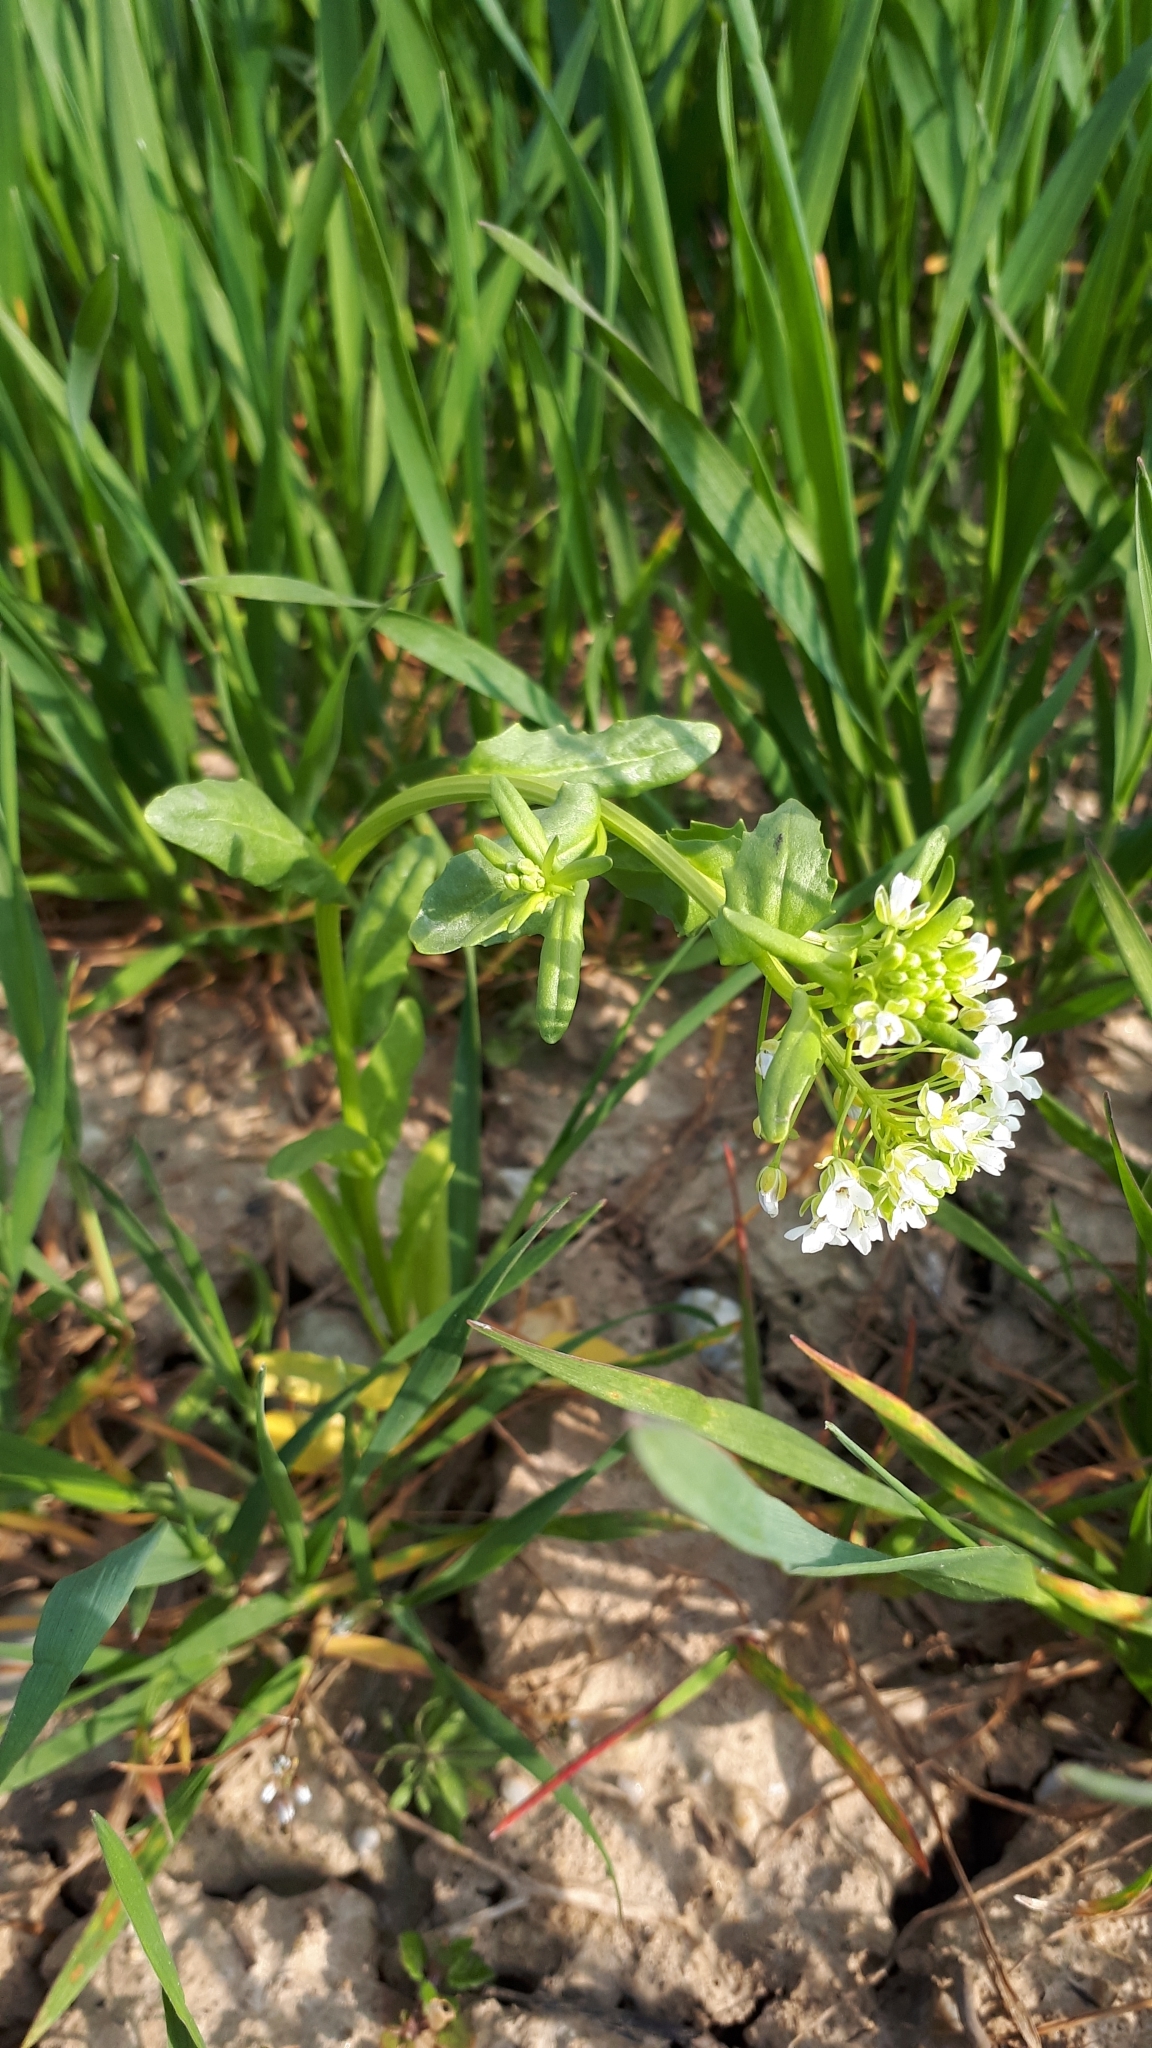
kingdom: Plantae
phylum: Tracheophyta
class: Magnoliopsida
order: Brassicales
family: Brassicaceae
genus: Thlaspi
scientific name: Thlaspi arvense
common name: Field pennycress
